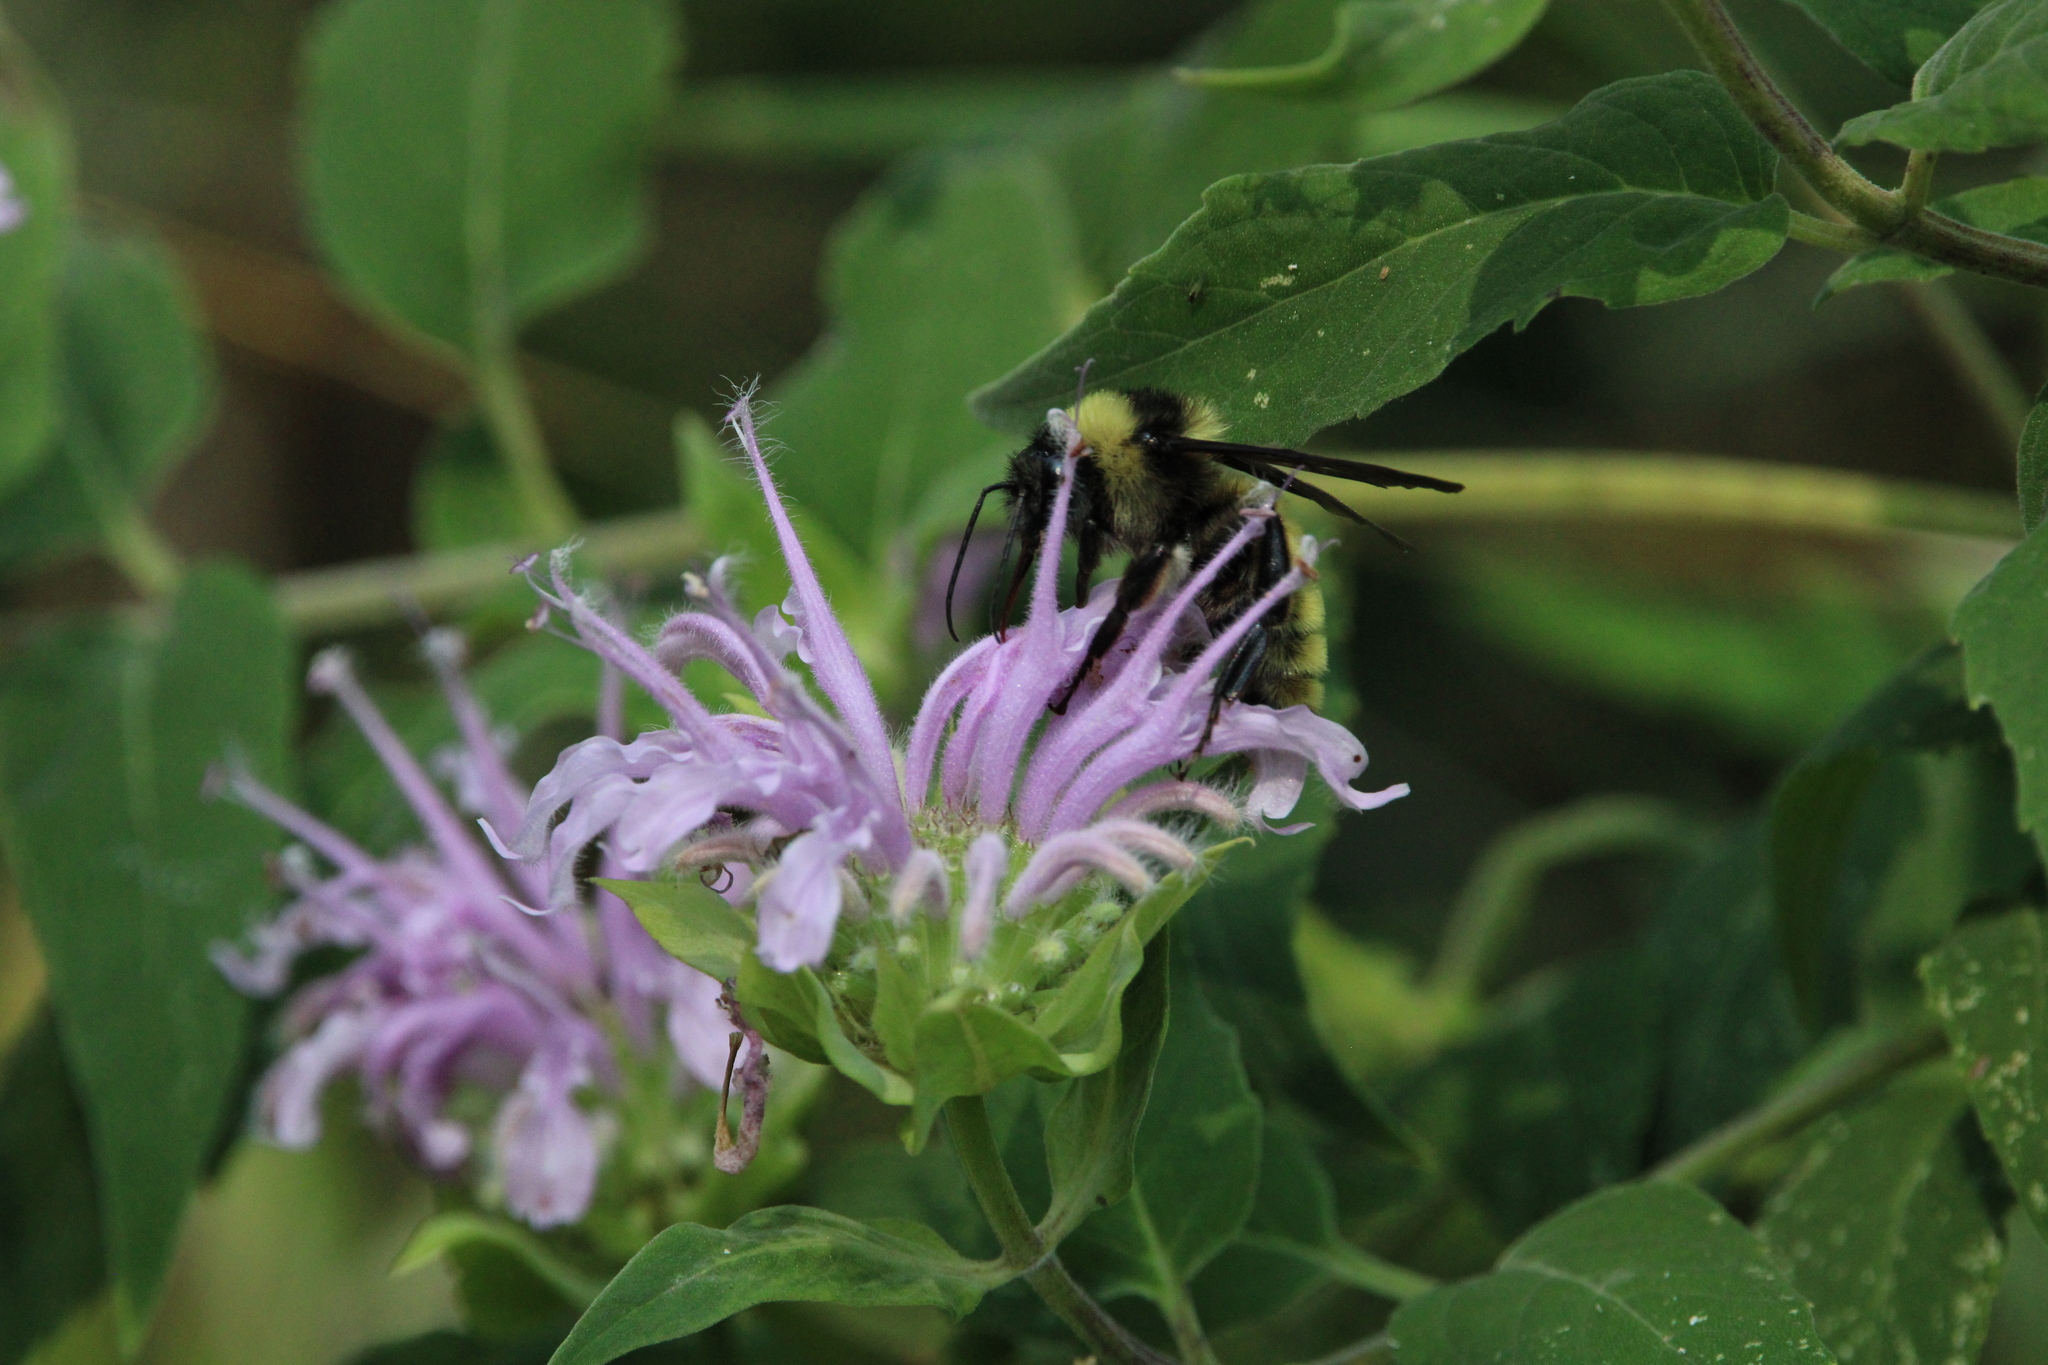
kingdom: Animalia
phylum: Arthropoda
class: Insecta
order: Hymenoptera
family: Apidae
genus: Bombus
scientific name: Bombus pensylvanicus
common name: Bumble bee
